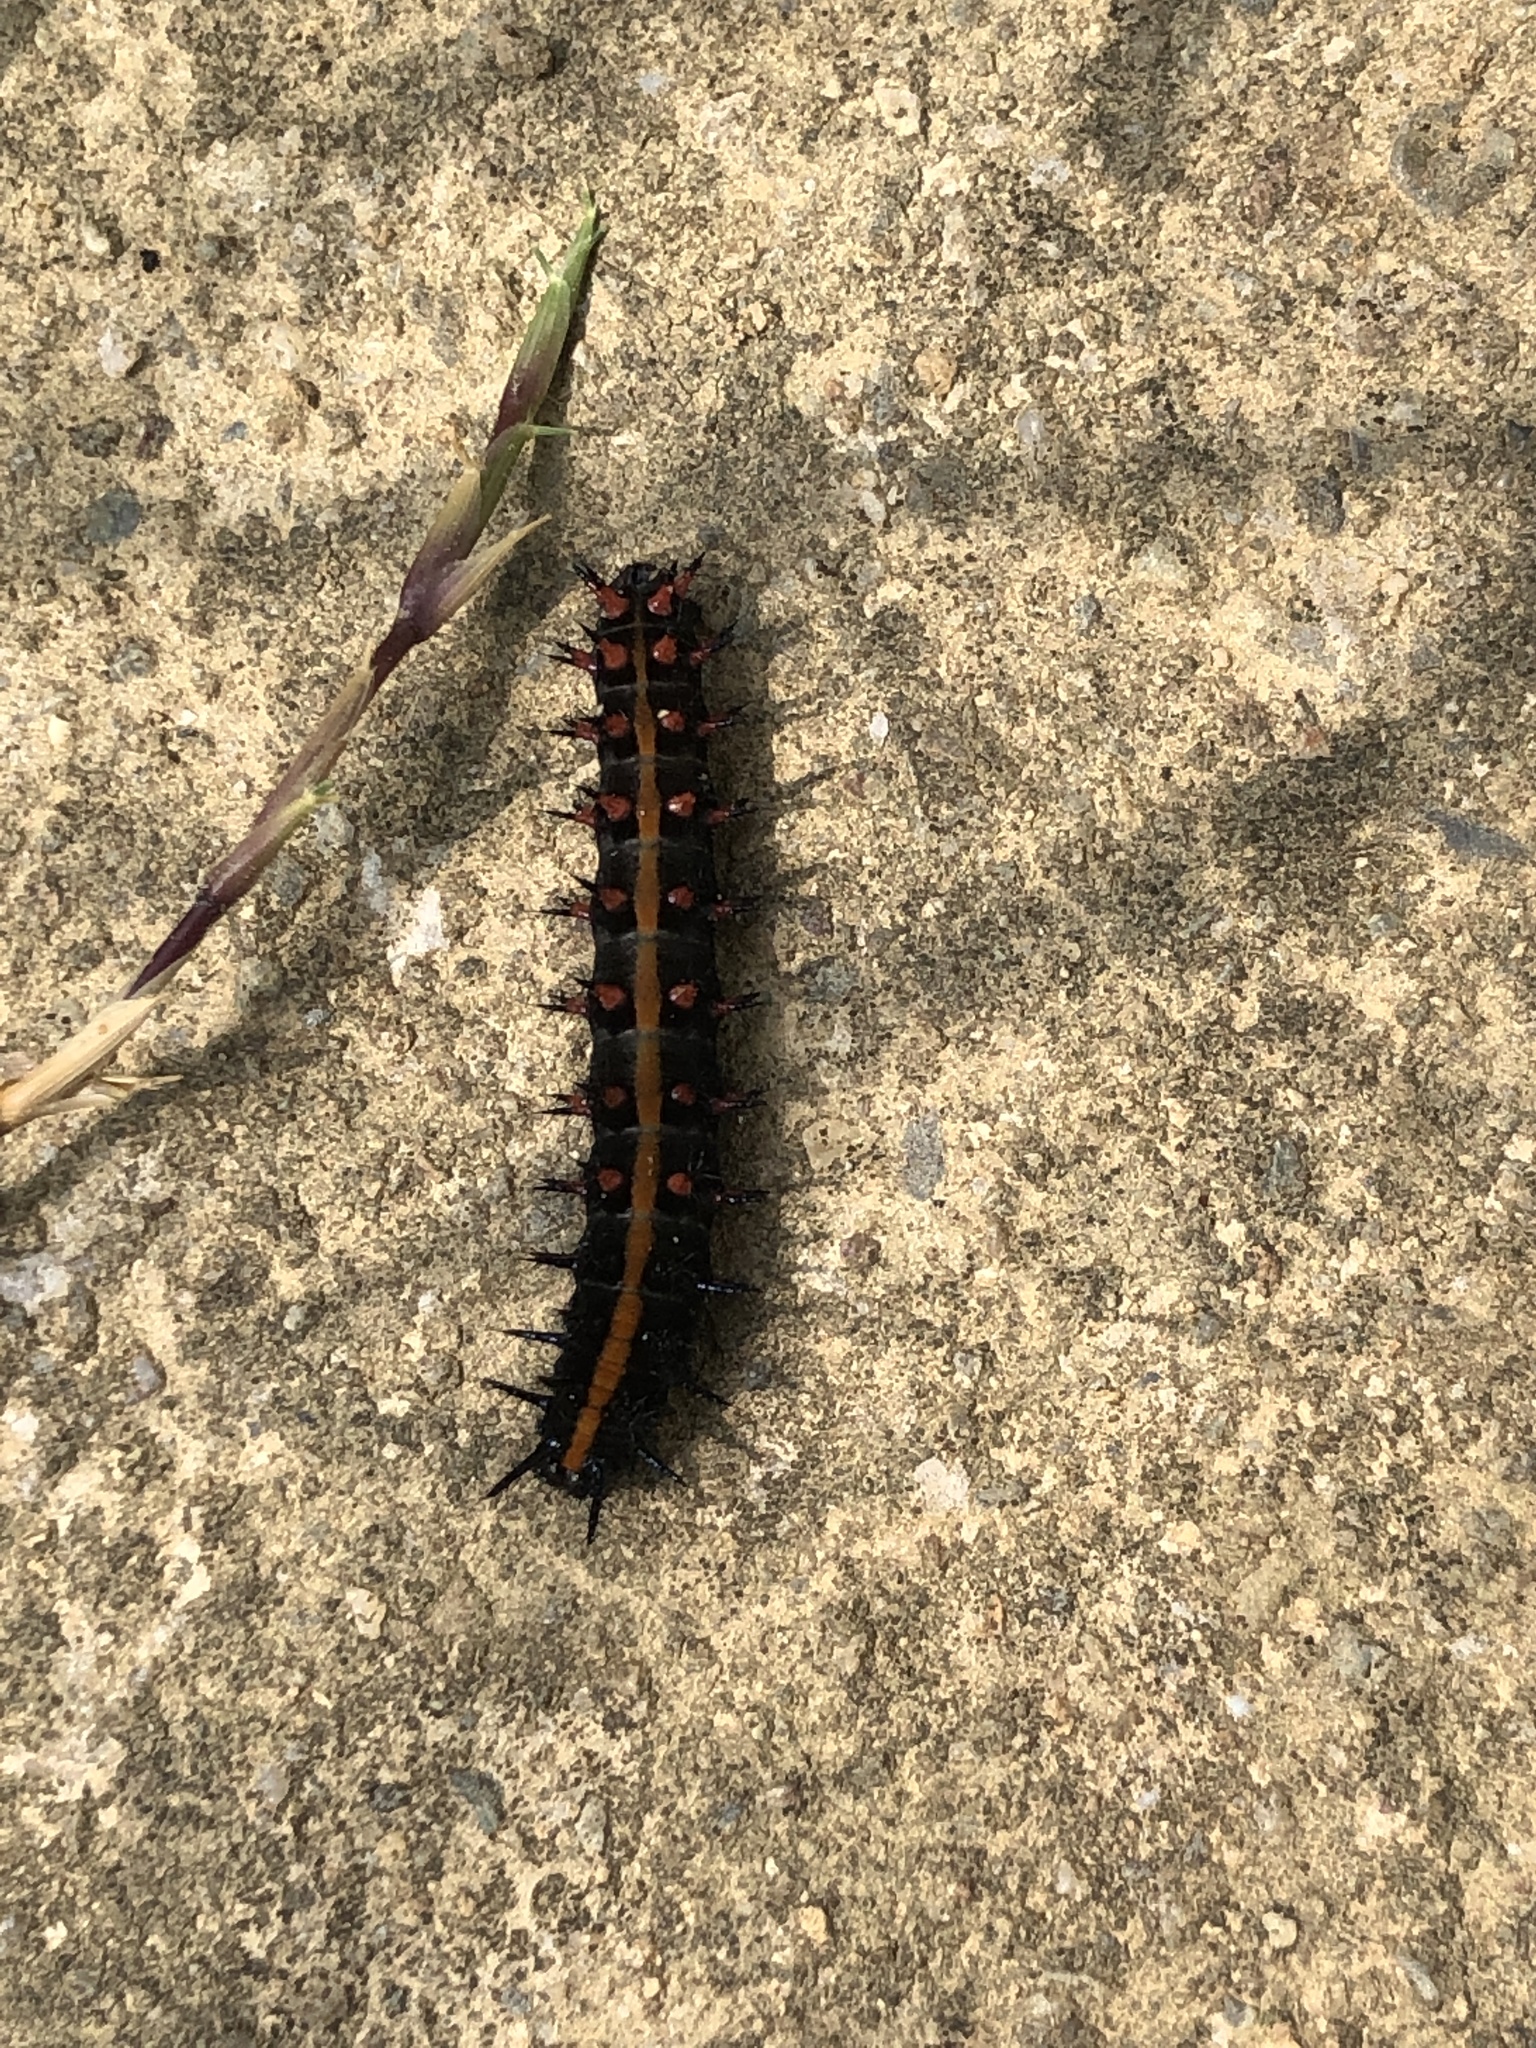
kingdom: Animalia
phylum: Arthropoda
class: Insecta
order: Lepidoptera
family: Nymphalidae
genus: Argynnis
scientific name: Argynnis hyperbius
